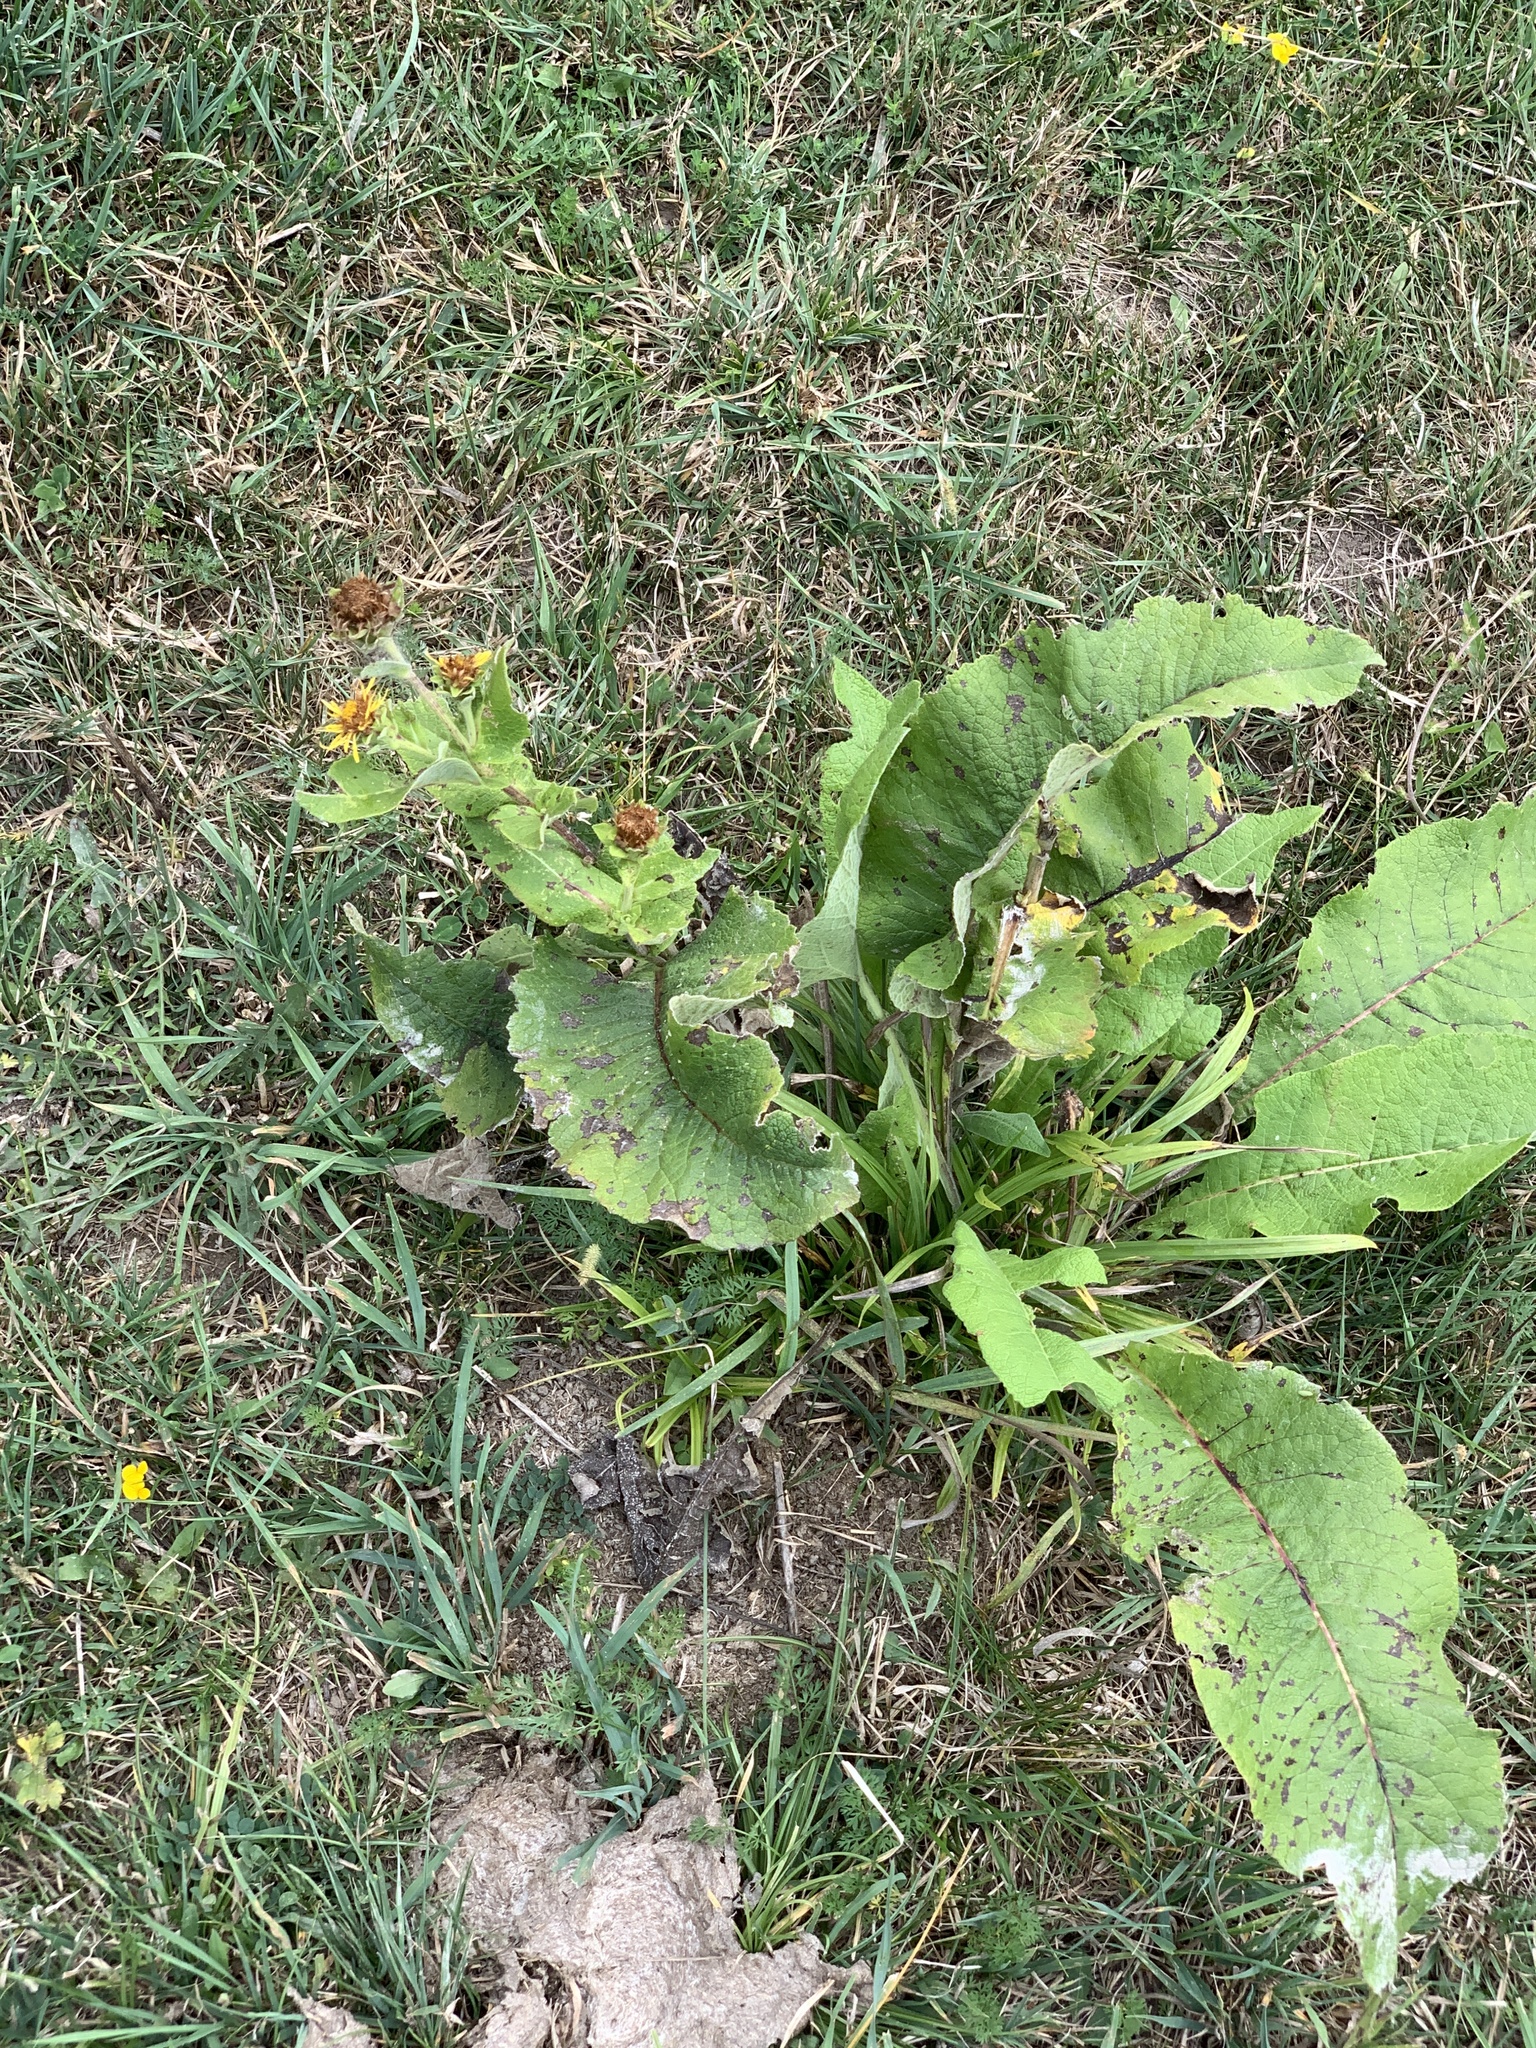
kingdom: Plantae
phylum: Tracheophyta
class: Magnoliopsida
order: Asterales
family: Asteraceae
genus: Inula
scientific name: Inula helenium
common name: Elecampane
